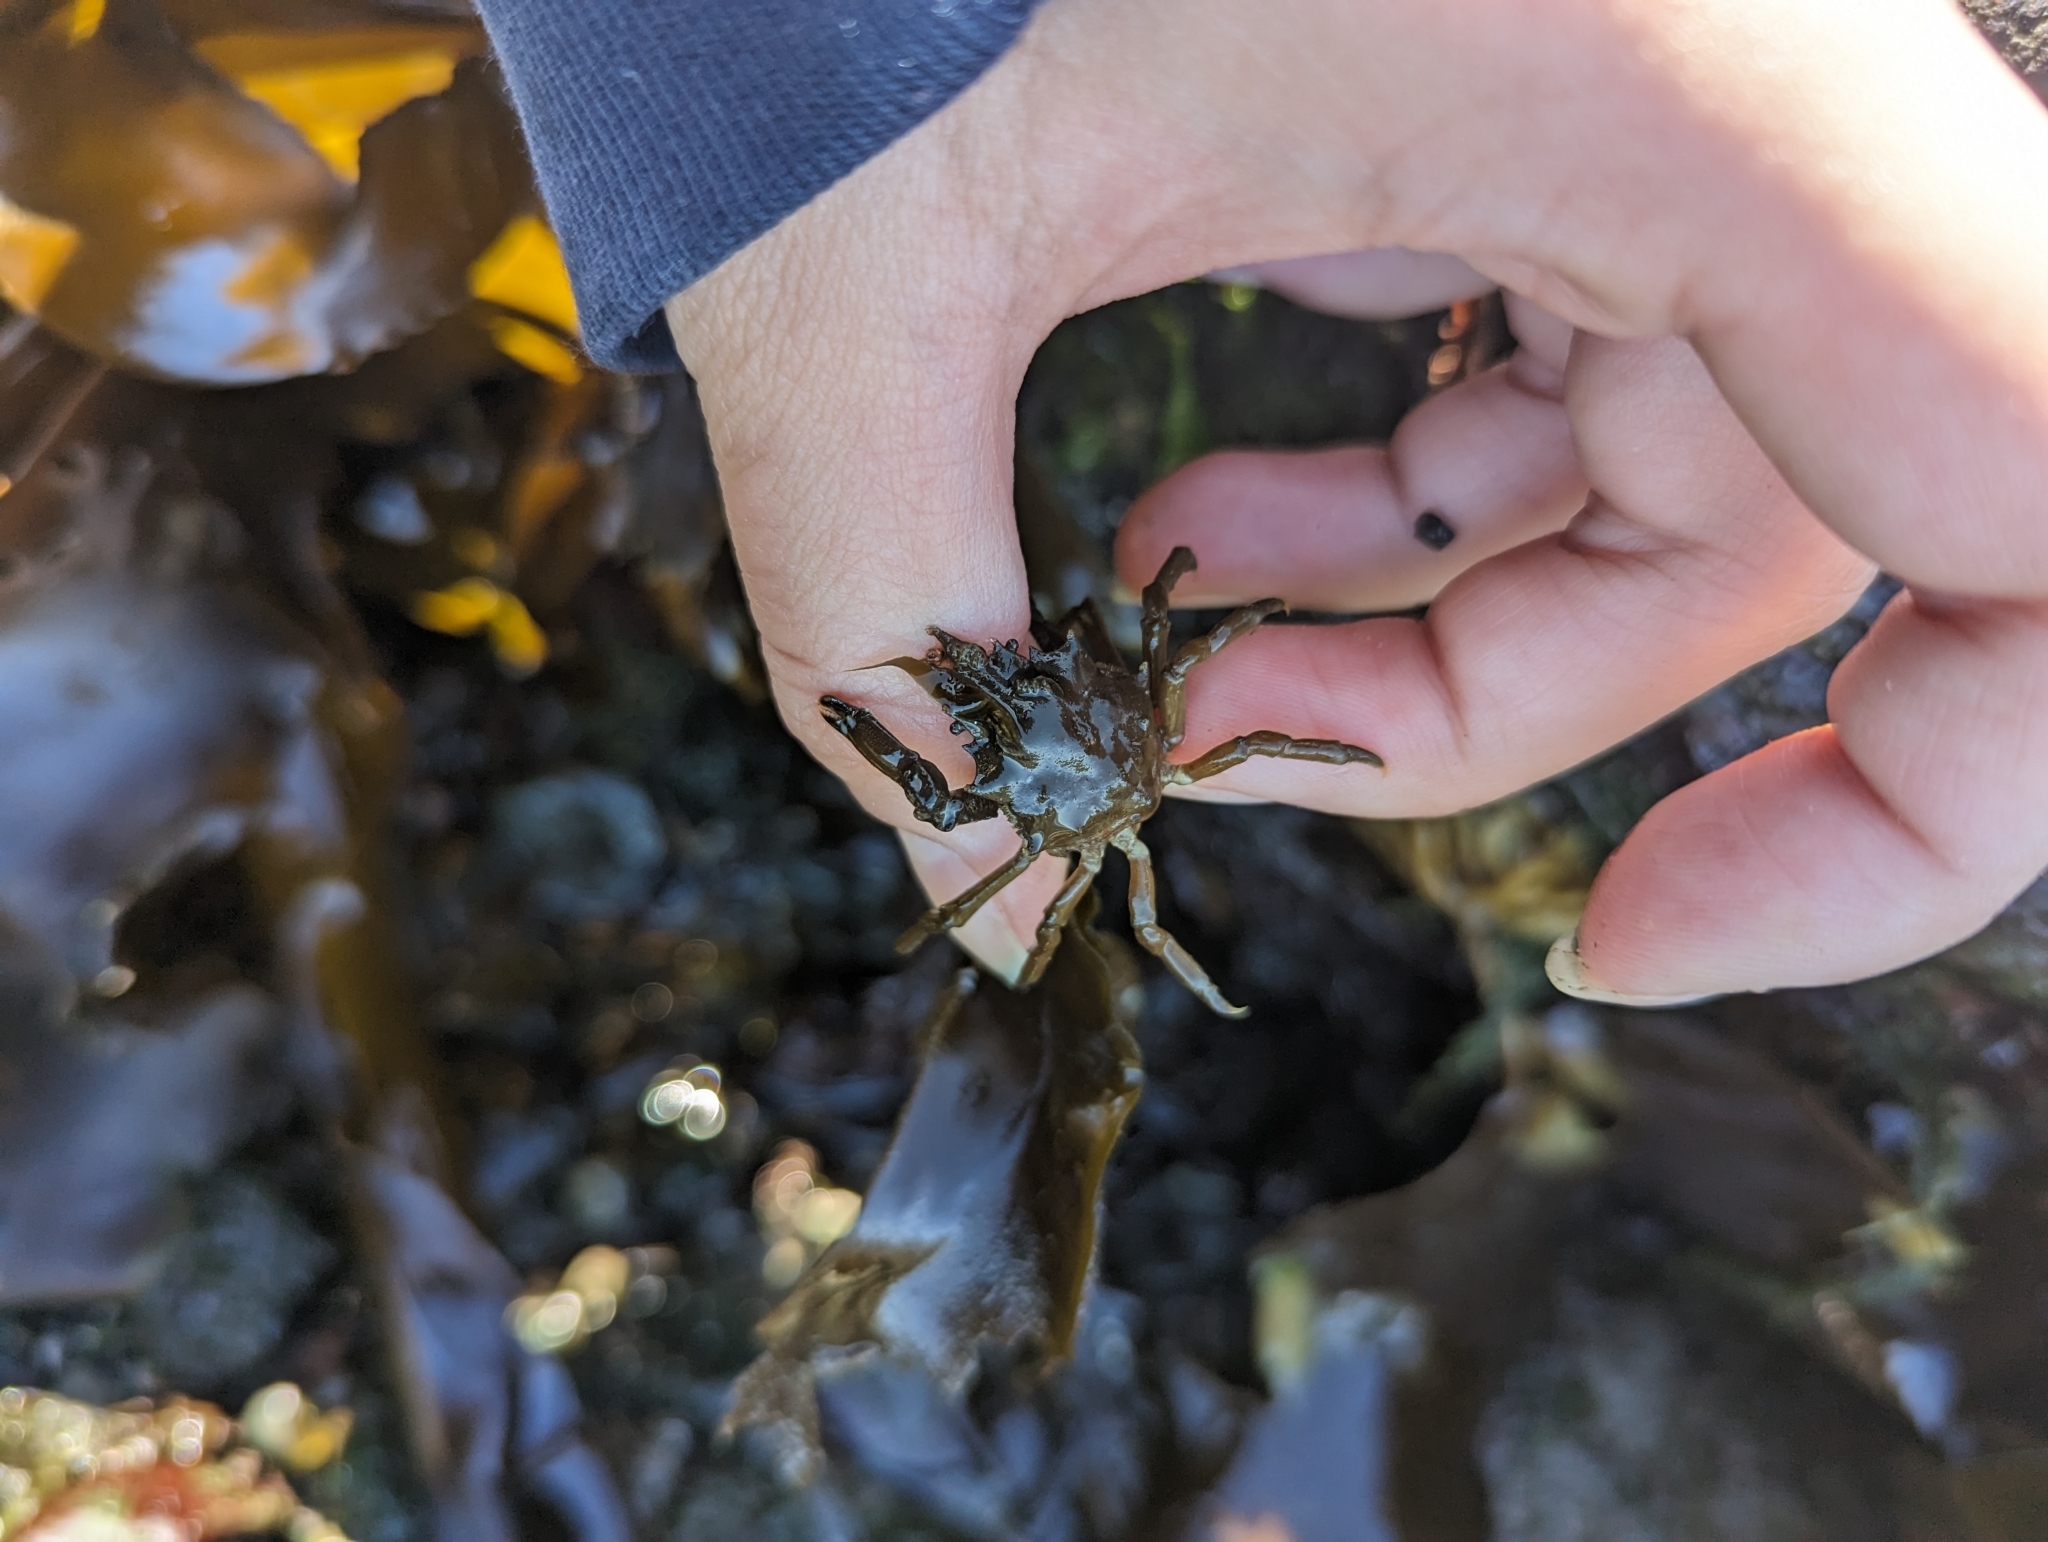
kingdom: Animalia
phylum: Arthropoda
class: Malacostraca
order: Decapoda
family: Epialtidae
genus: Pugettia
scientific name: Pugettia gracilis
